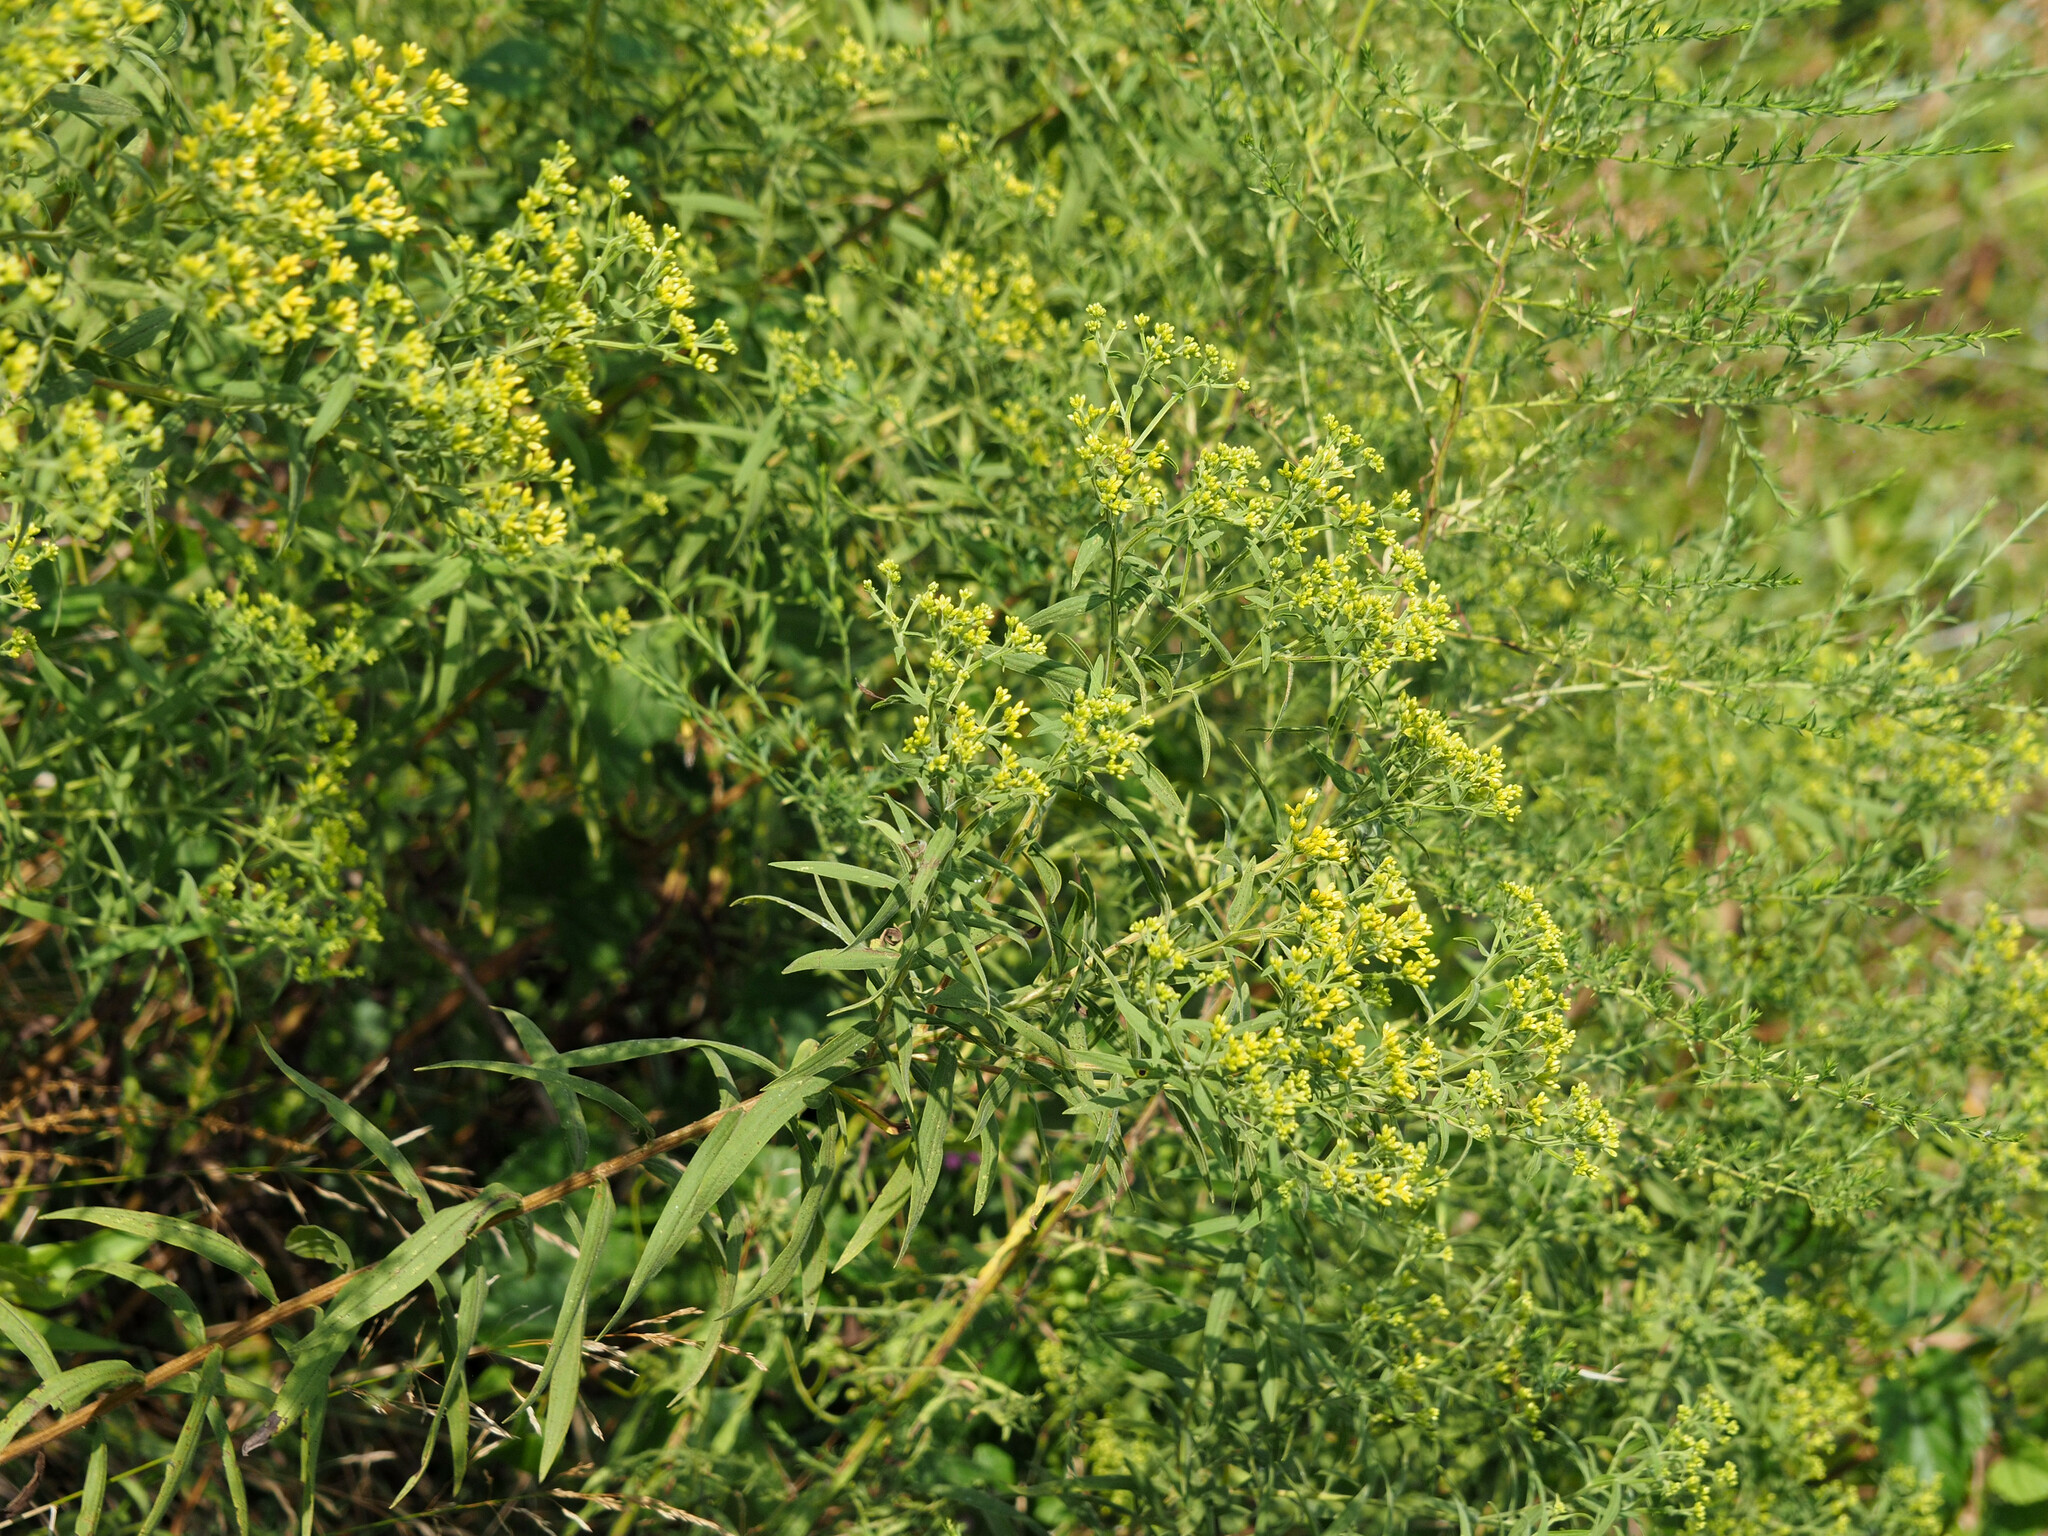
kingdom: Plantae
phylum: Tracheophyta
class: Magnoliopsida
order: Asterales
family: Asteraceae
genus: Euthamia
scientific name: Euthamia graminifolia
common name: Common goldentop
